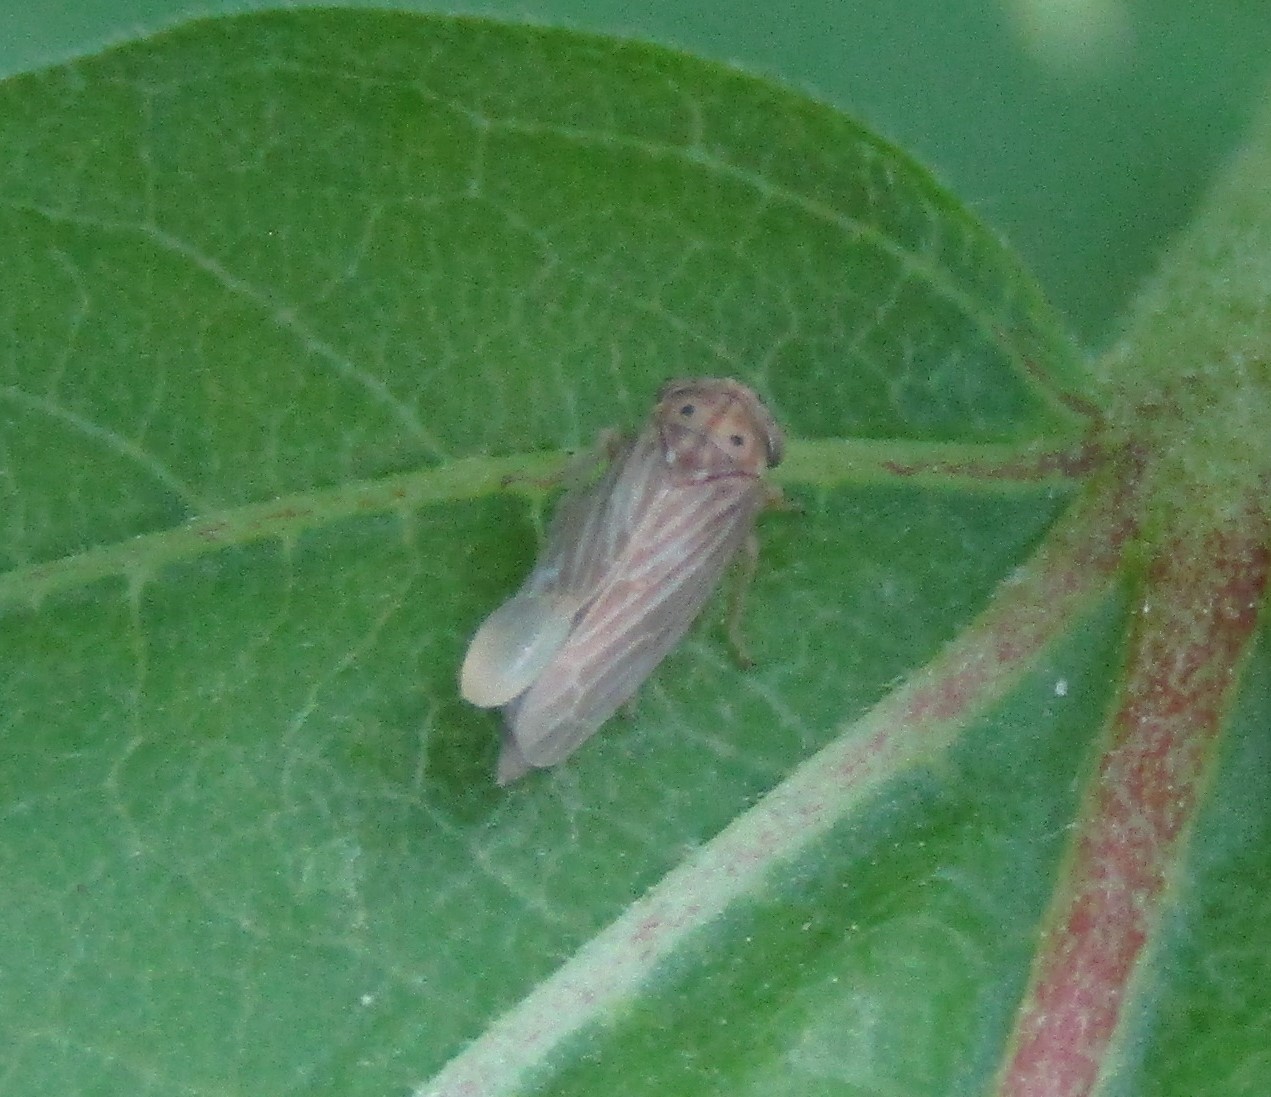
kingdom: Animalia
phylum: Arthropoda
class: Insecta
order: Hemiptera
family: Cicadellidae
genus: Agallia
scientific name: Agallia constricta
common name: The constricted leafhopper
